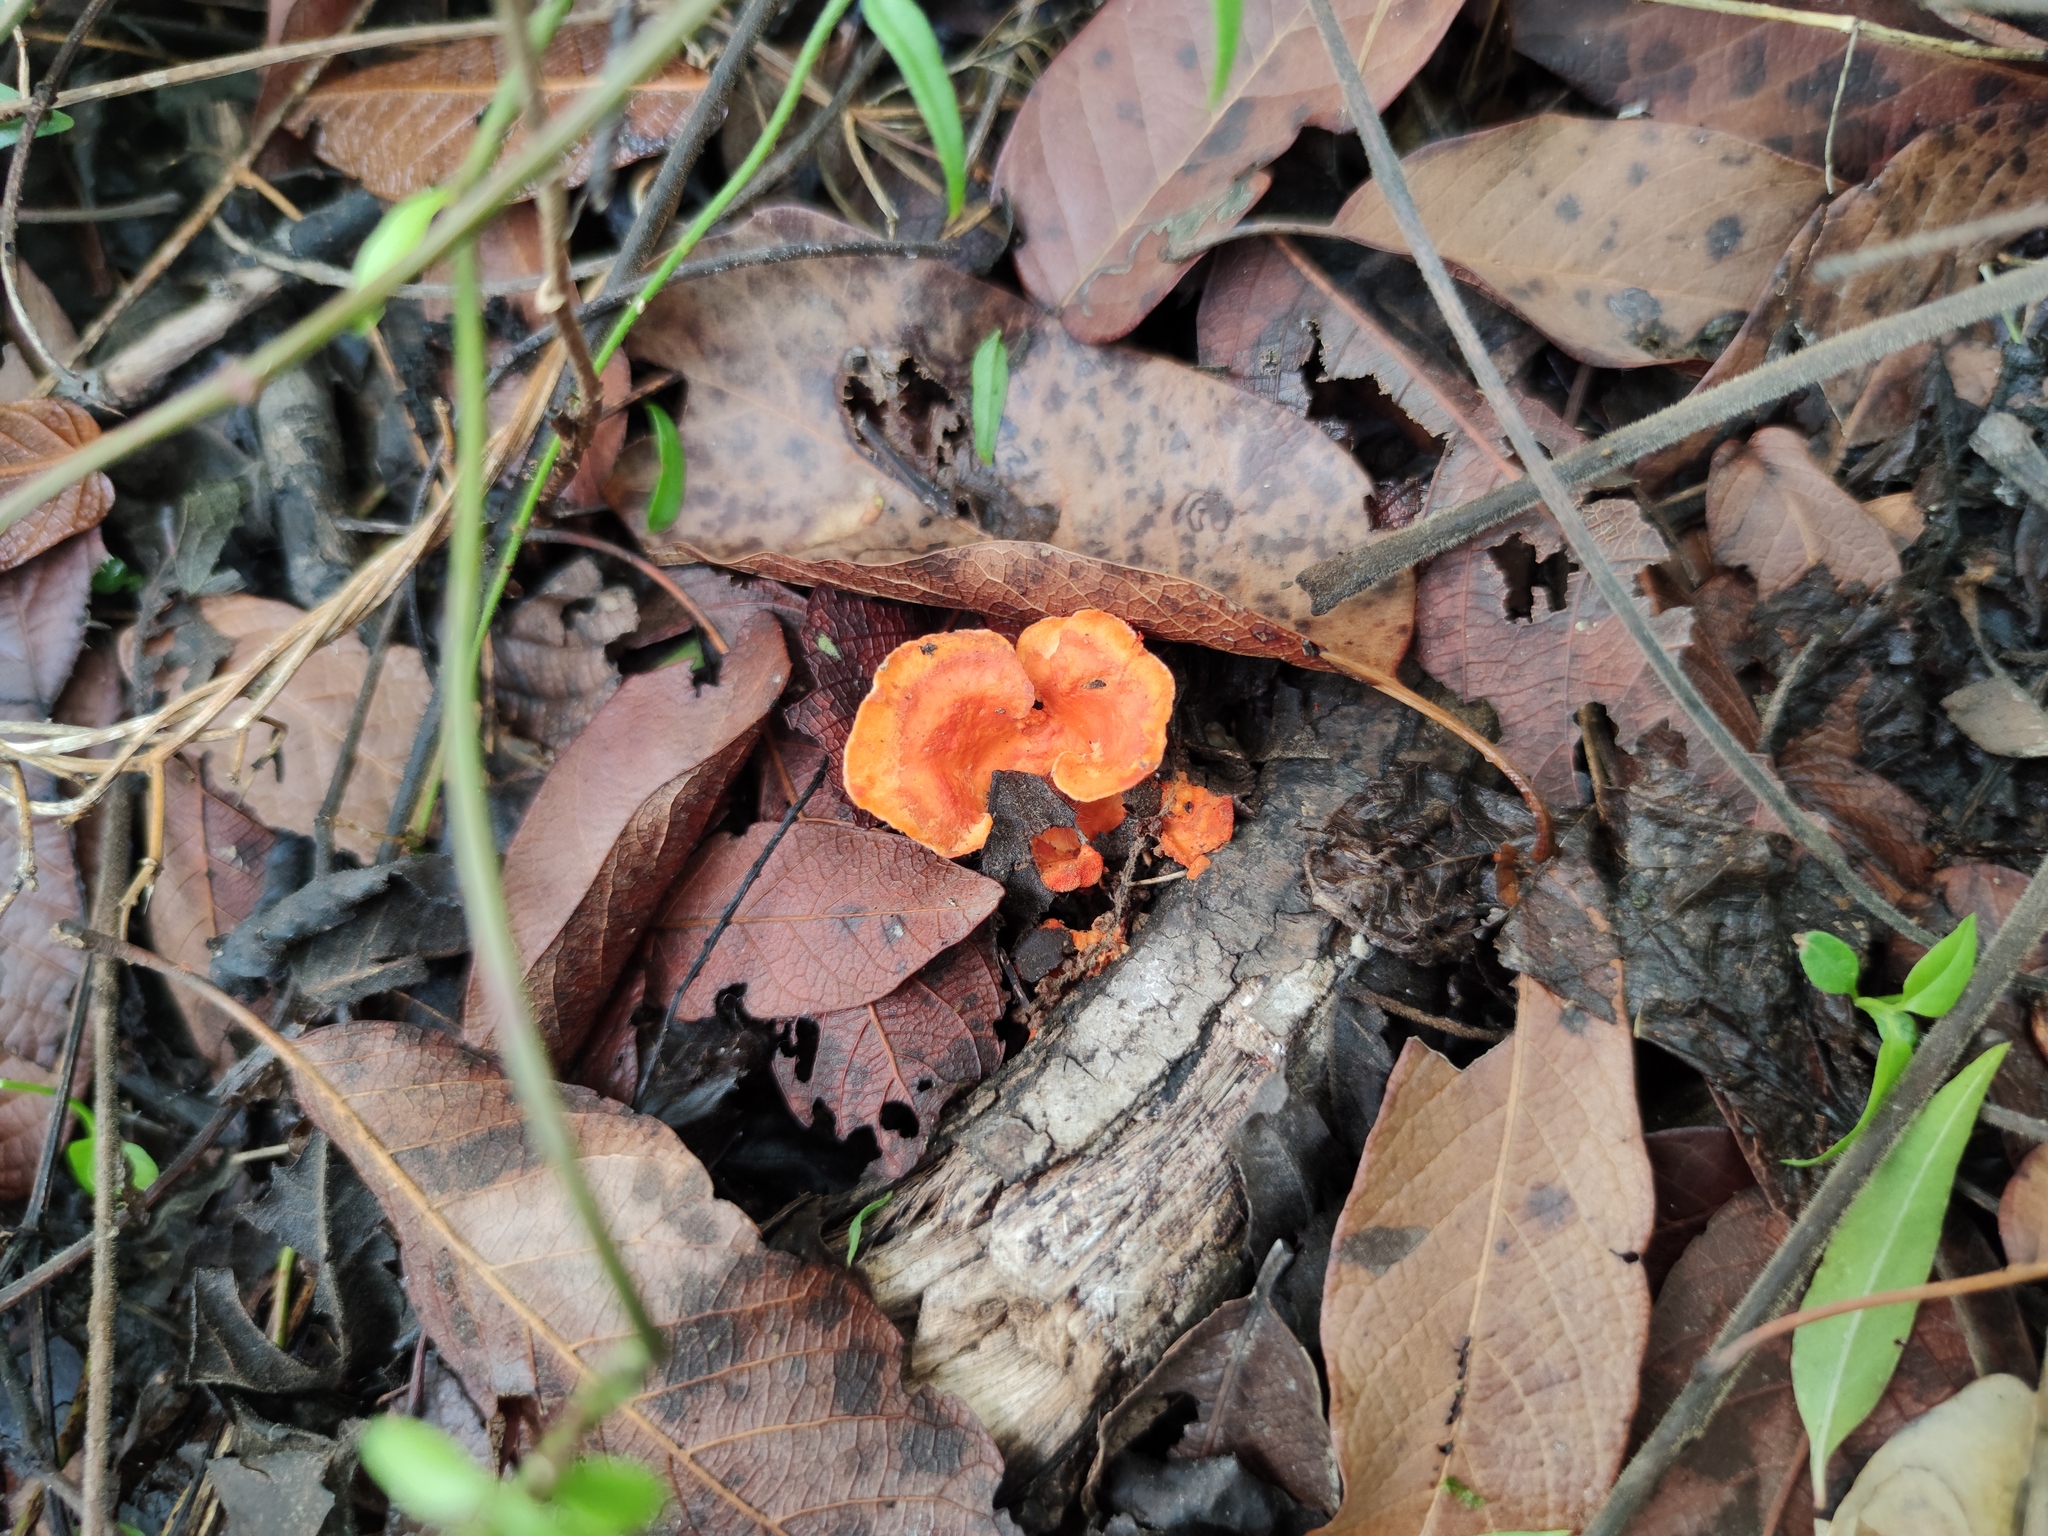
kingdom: Fungi
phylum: Basidiomycota
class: Agaricomycetes
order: Polyporales
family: Polyporaceae
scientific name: Polyporaceae
